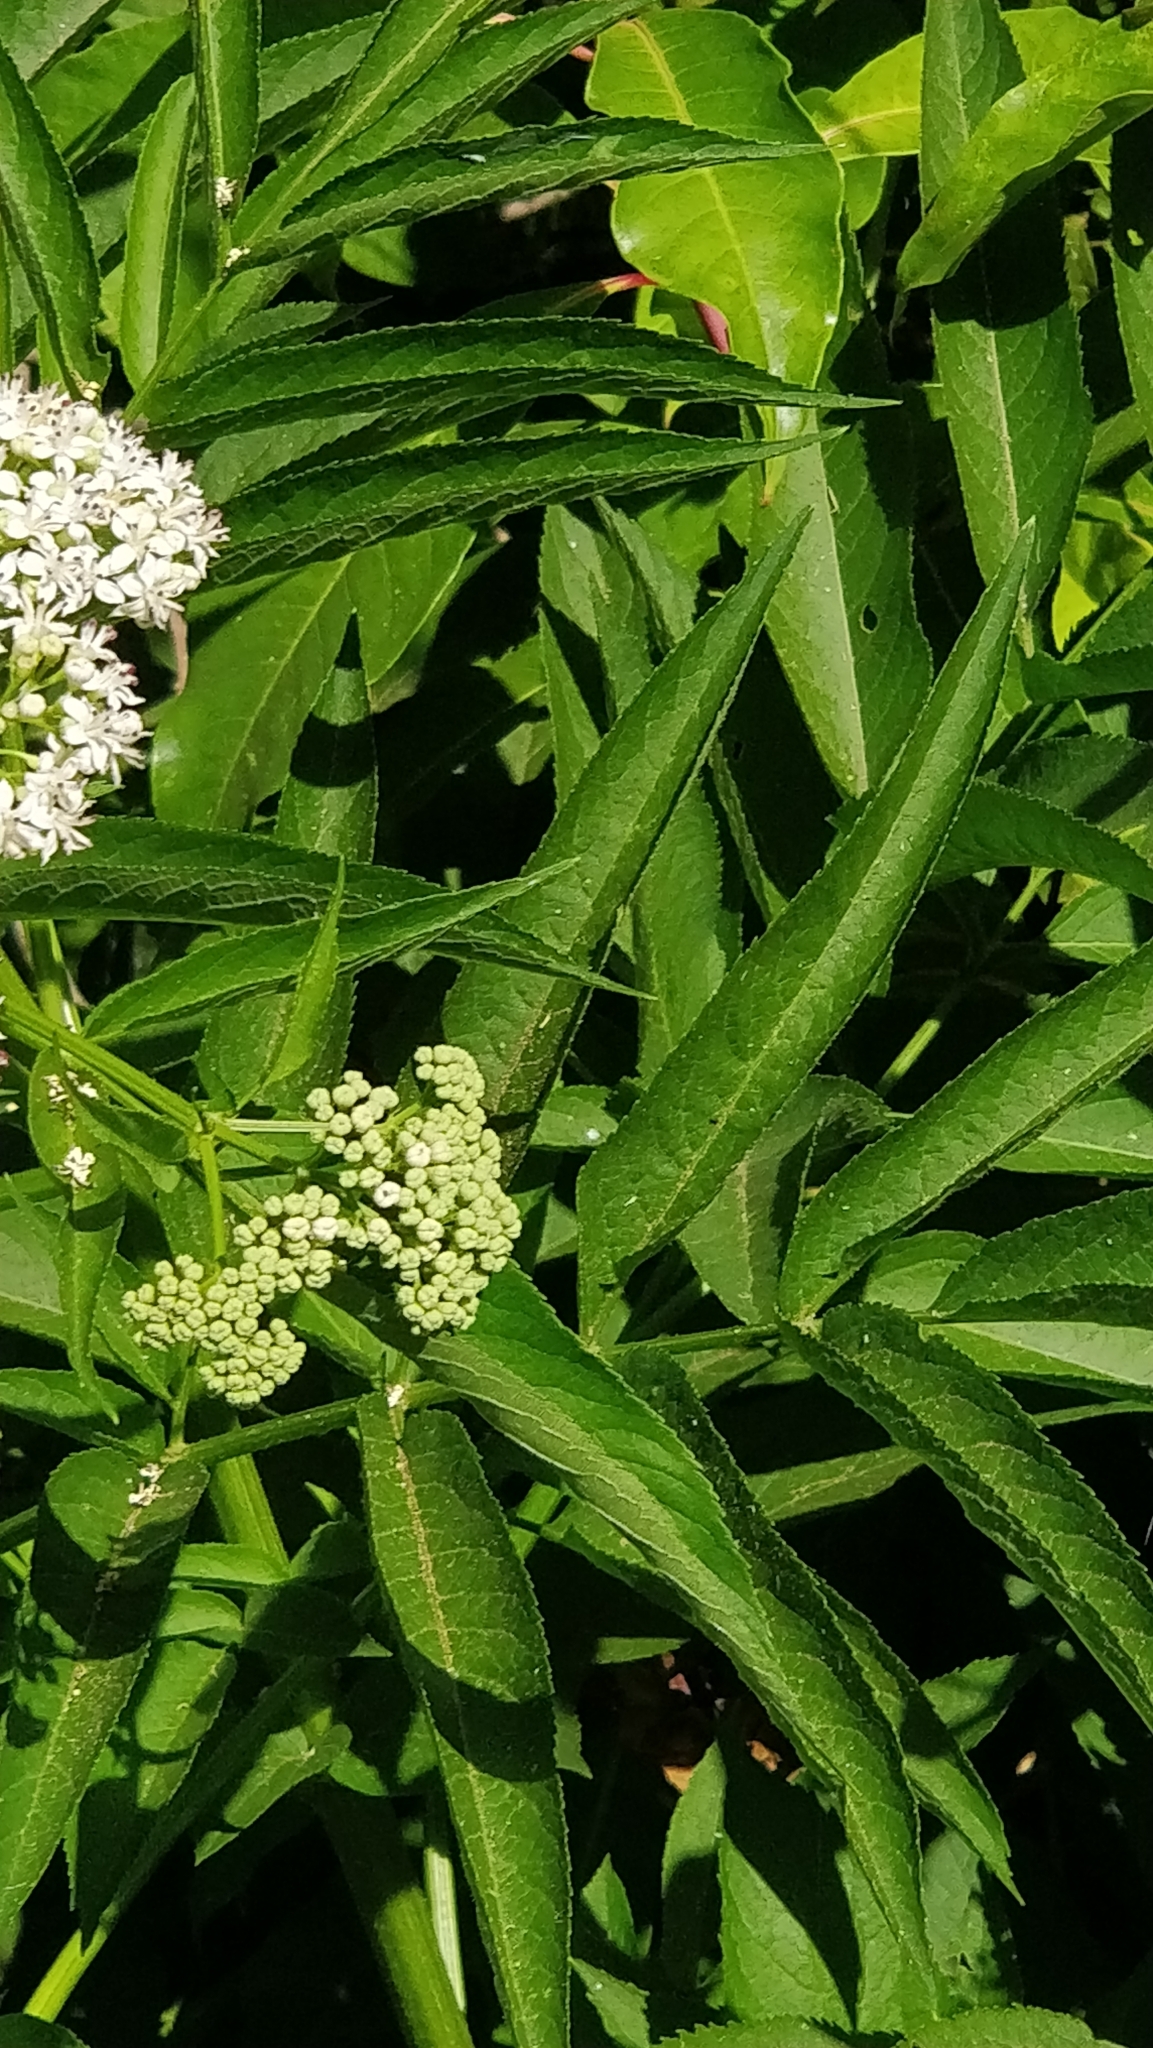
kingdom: Plantae
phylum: Tracheophyta
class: Magnoliopsida
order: Dipsacales
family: Viburnaceae
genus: Sambucus
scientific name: Sambucus ebulus
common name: Dwarf elder
